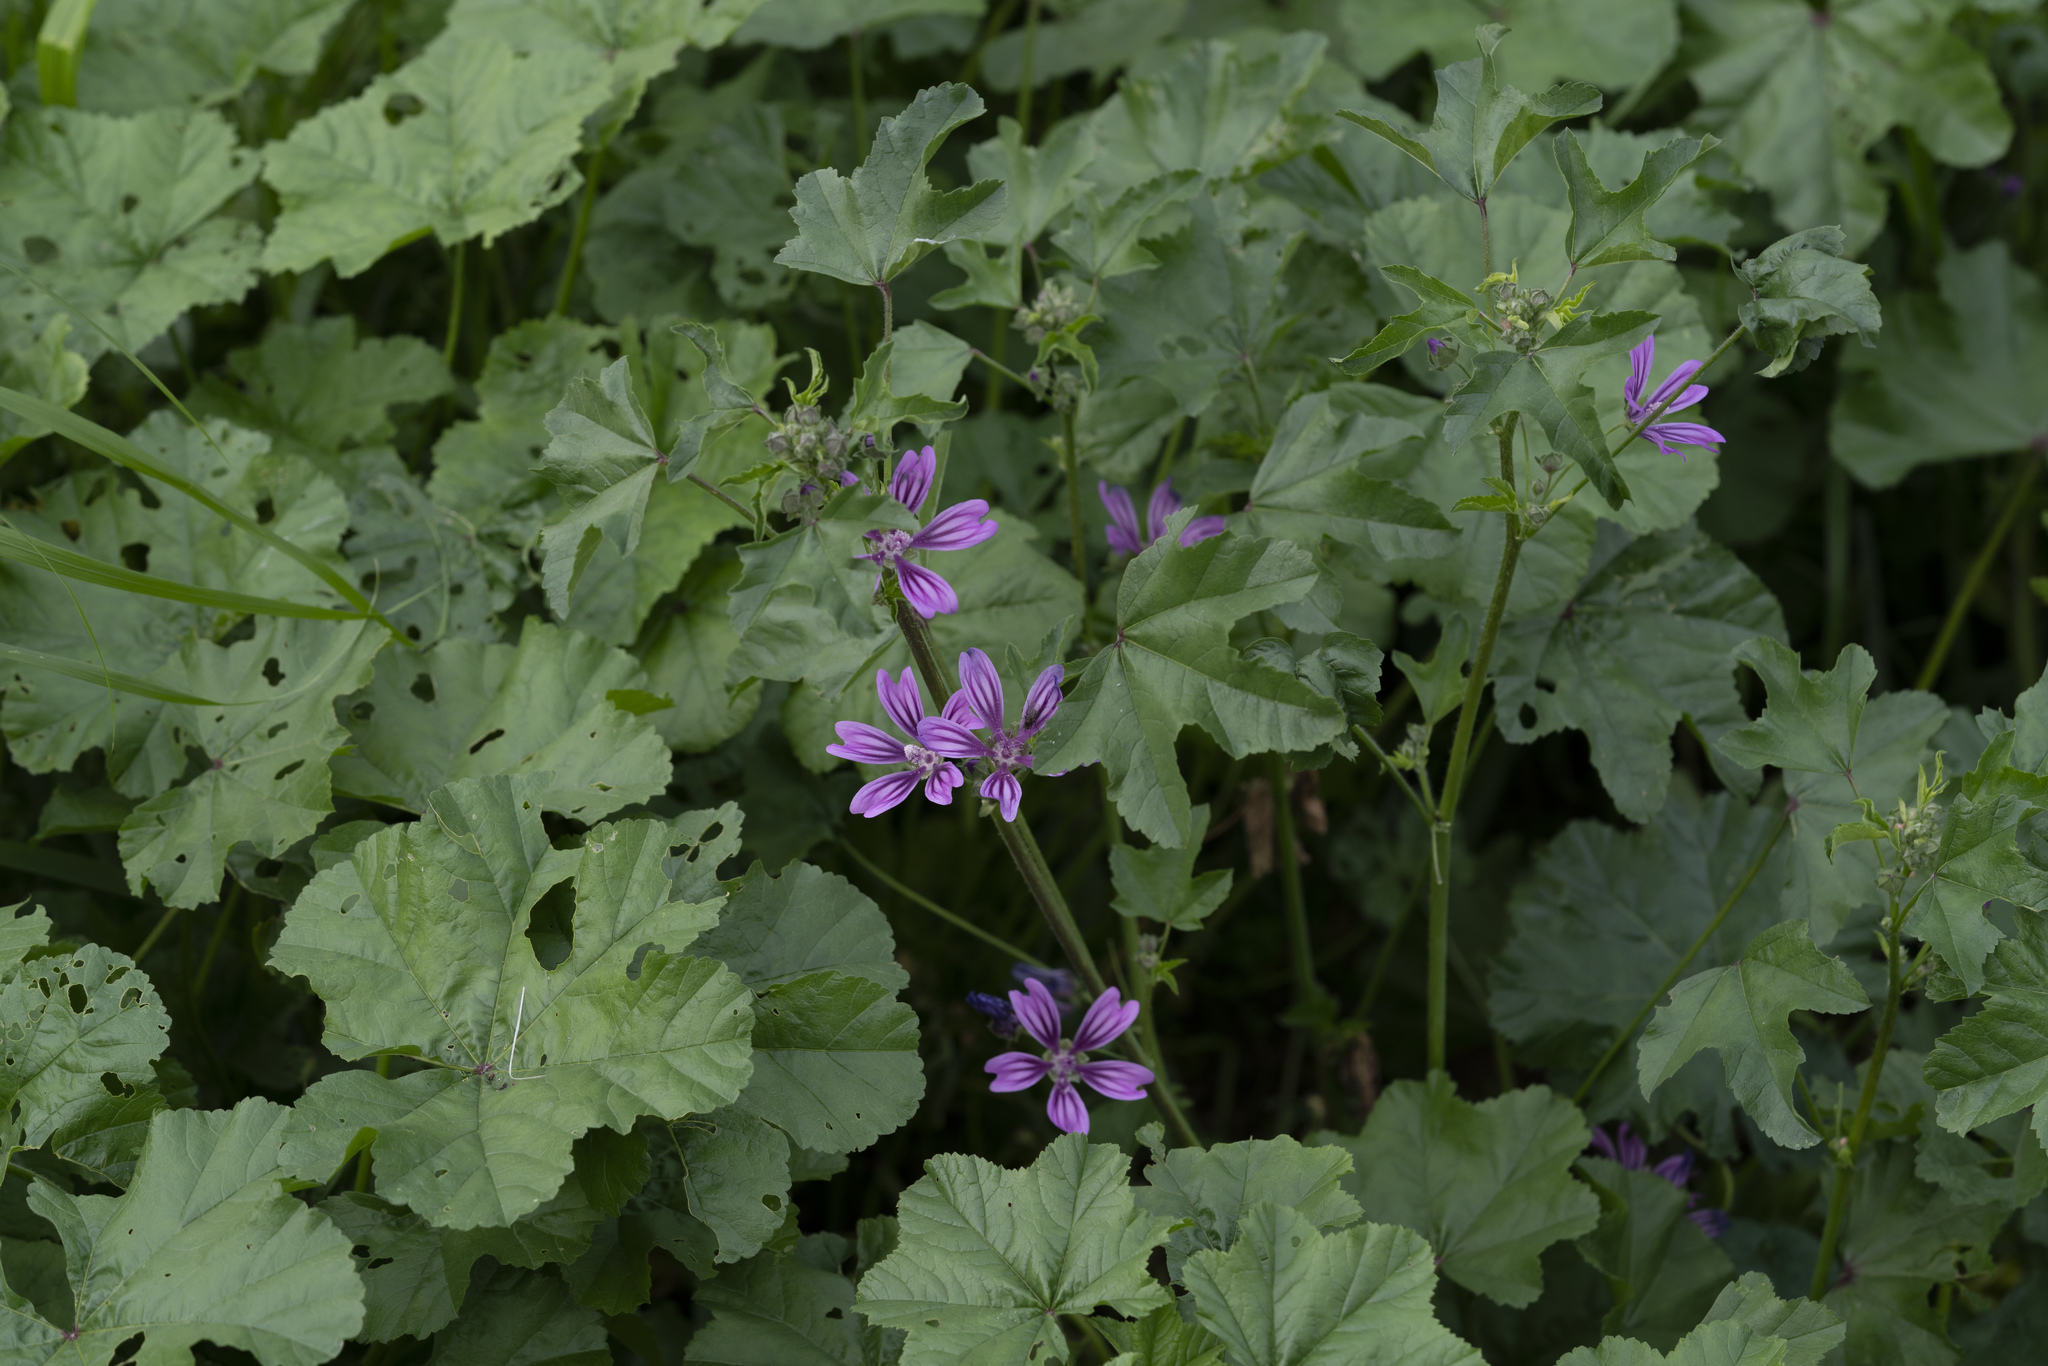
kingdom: Plantae
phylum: Tracheophyta
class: Magnoliopsida
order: Malvales
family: Malvaceae
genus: Malva
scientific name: Malva sylvestris
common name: Common mallow
